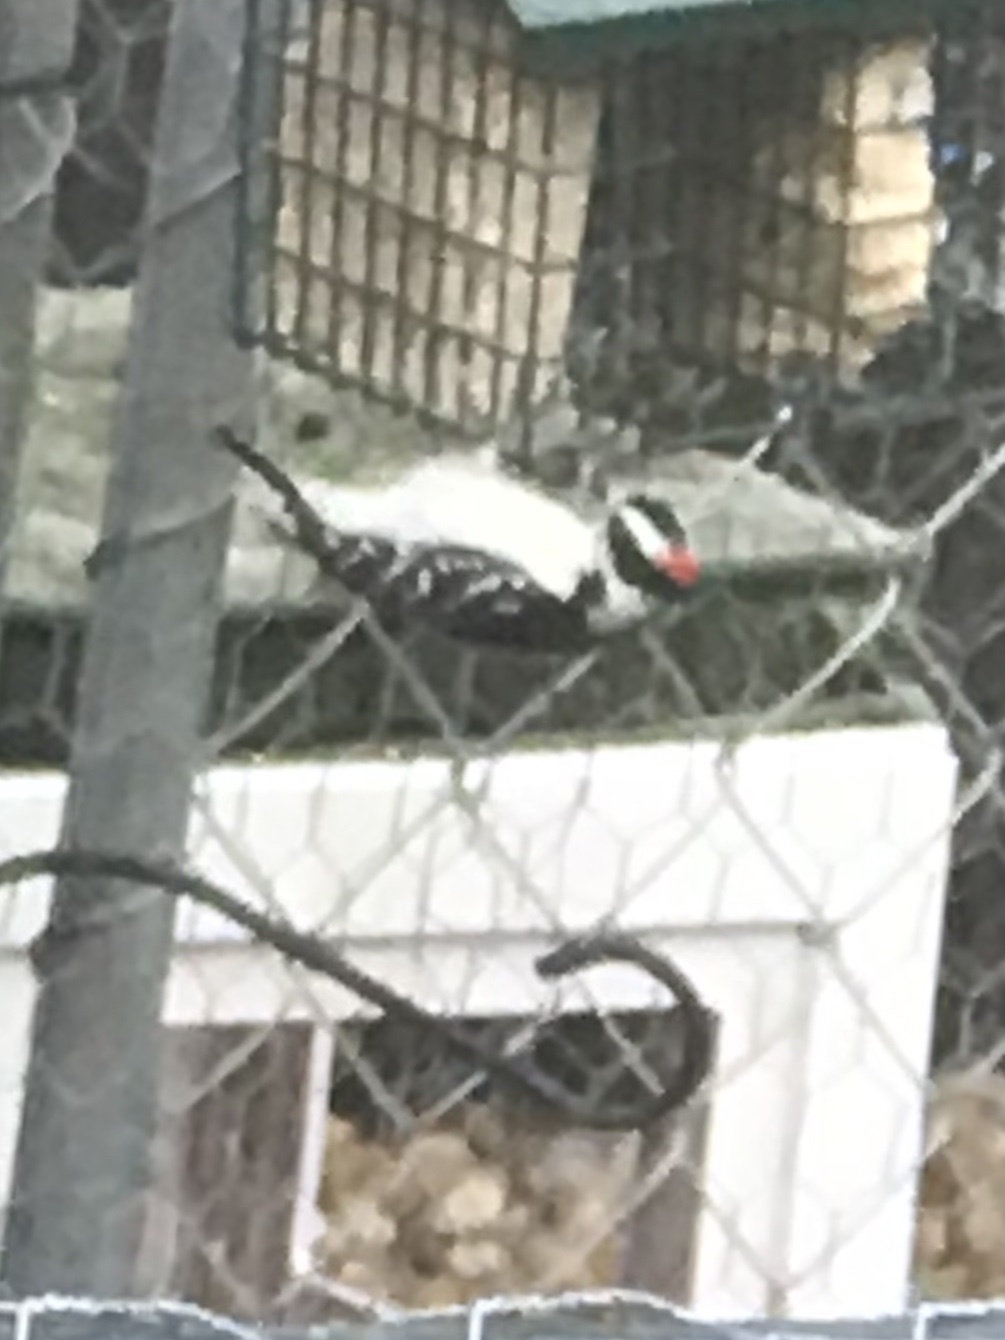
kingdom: Animalia
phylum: Chordata
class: Aves
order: Piciformes
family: Picidae
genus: Dryobates
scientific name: Dryobates pubescens
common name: Downy woodpecker
